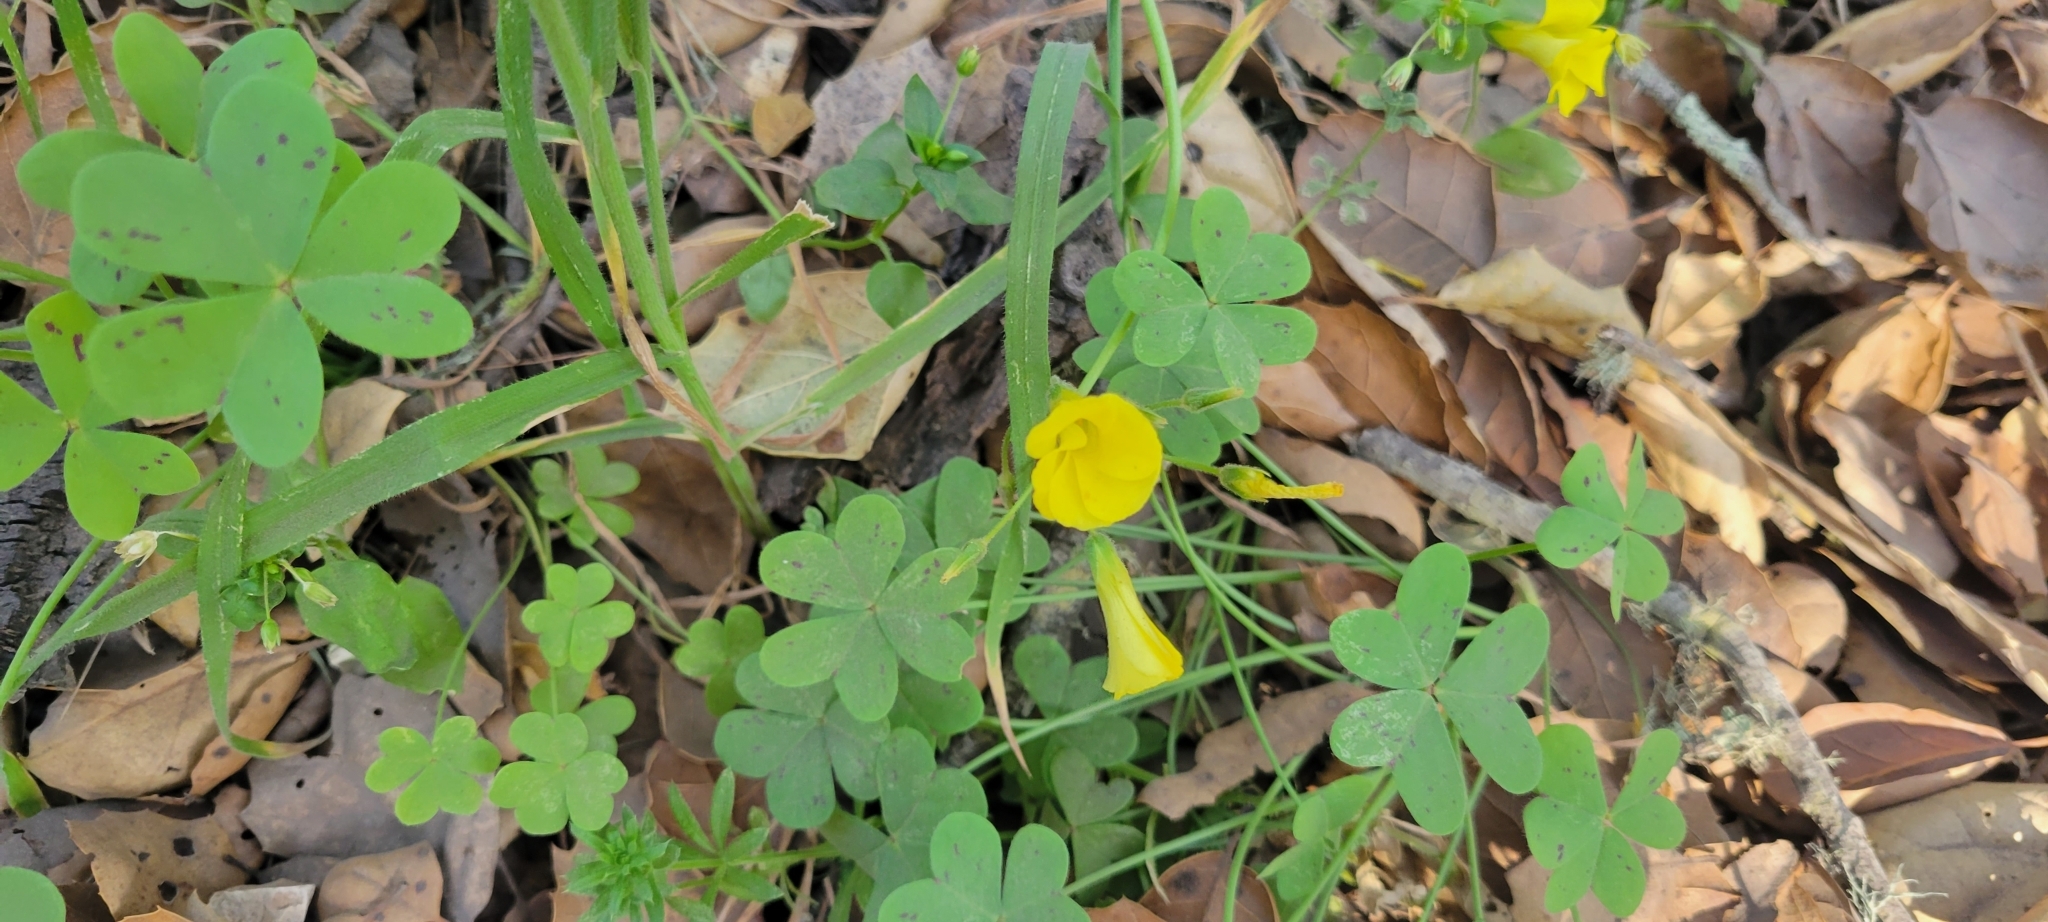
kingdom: Plantae
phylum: Tracheophyta
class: Magnoliopsida
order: Oxalidales
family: Oxalidaceae
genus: Oxalis
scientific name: Oxalis pes-caprae
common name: Bermuda-buttercup
